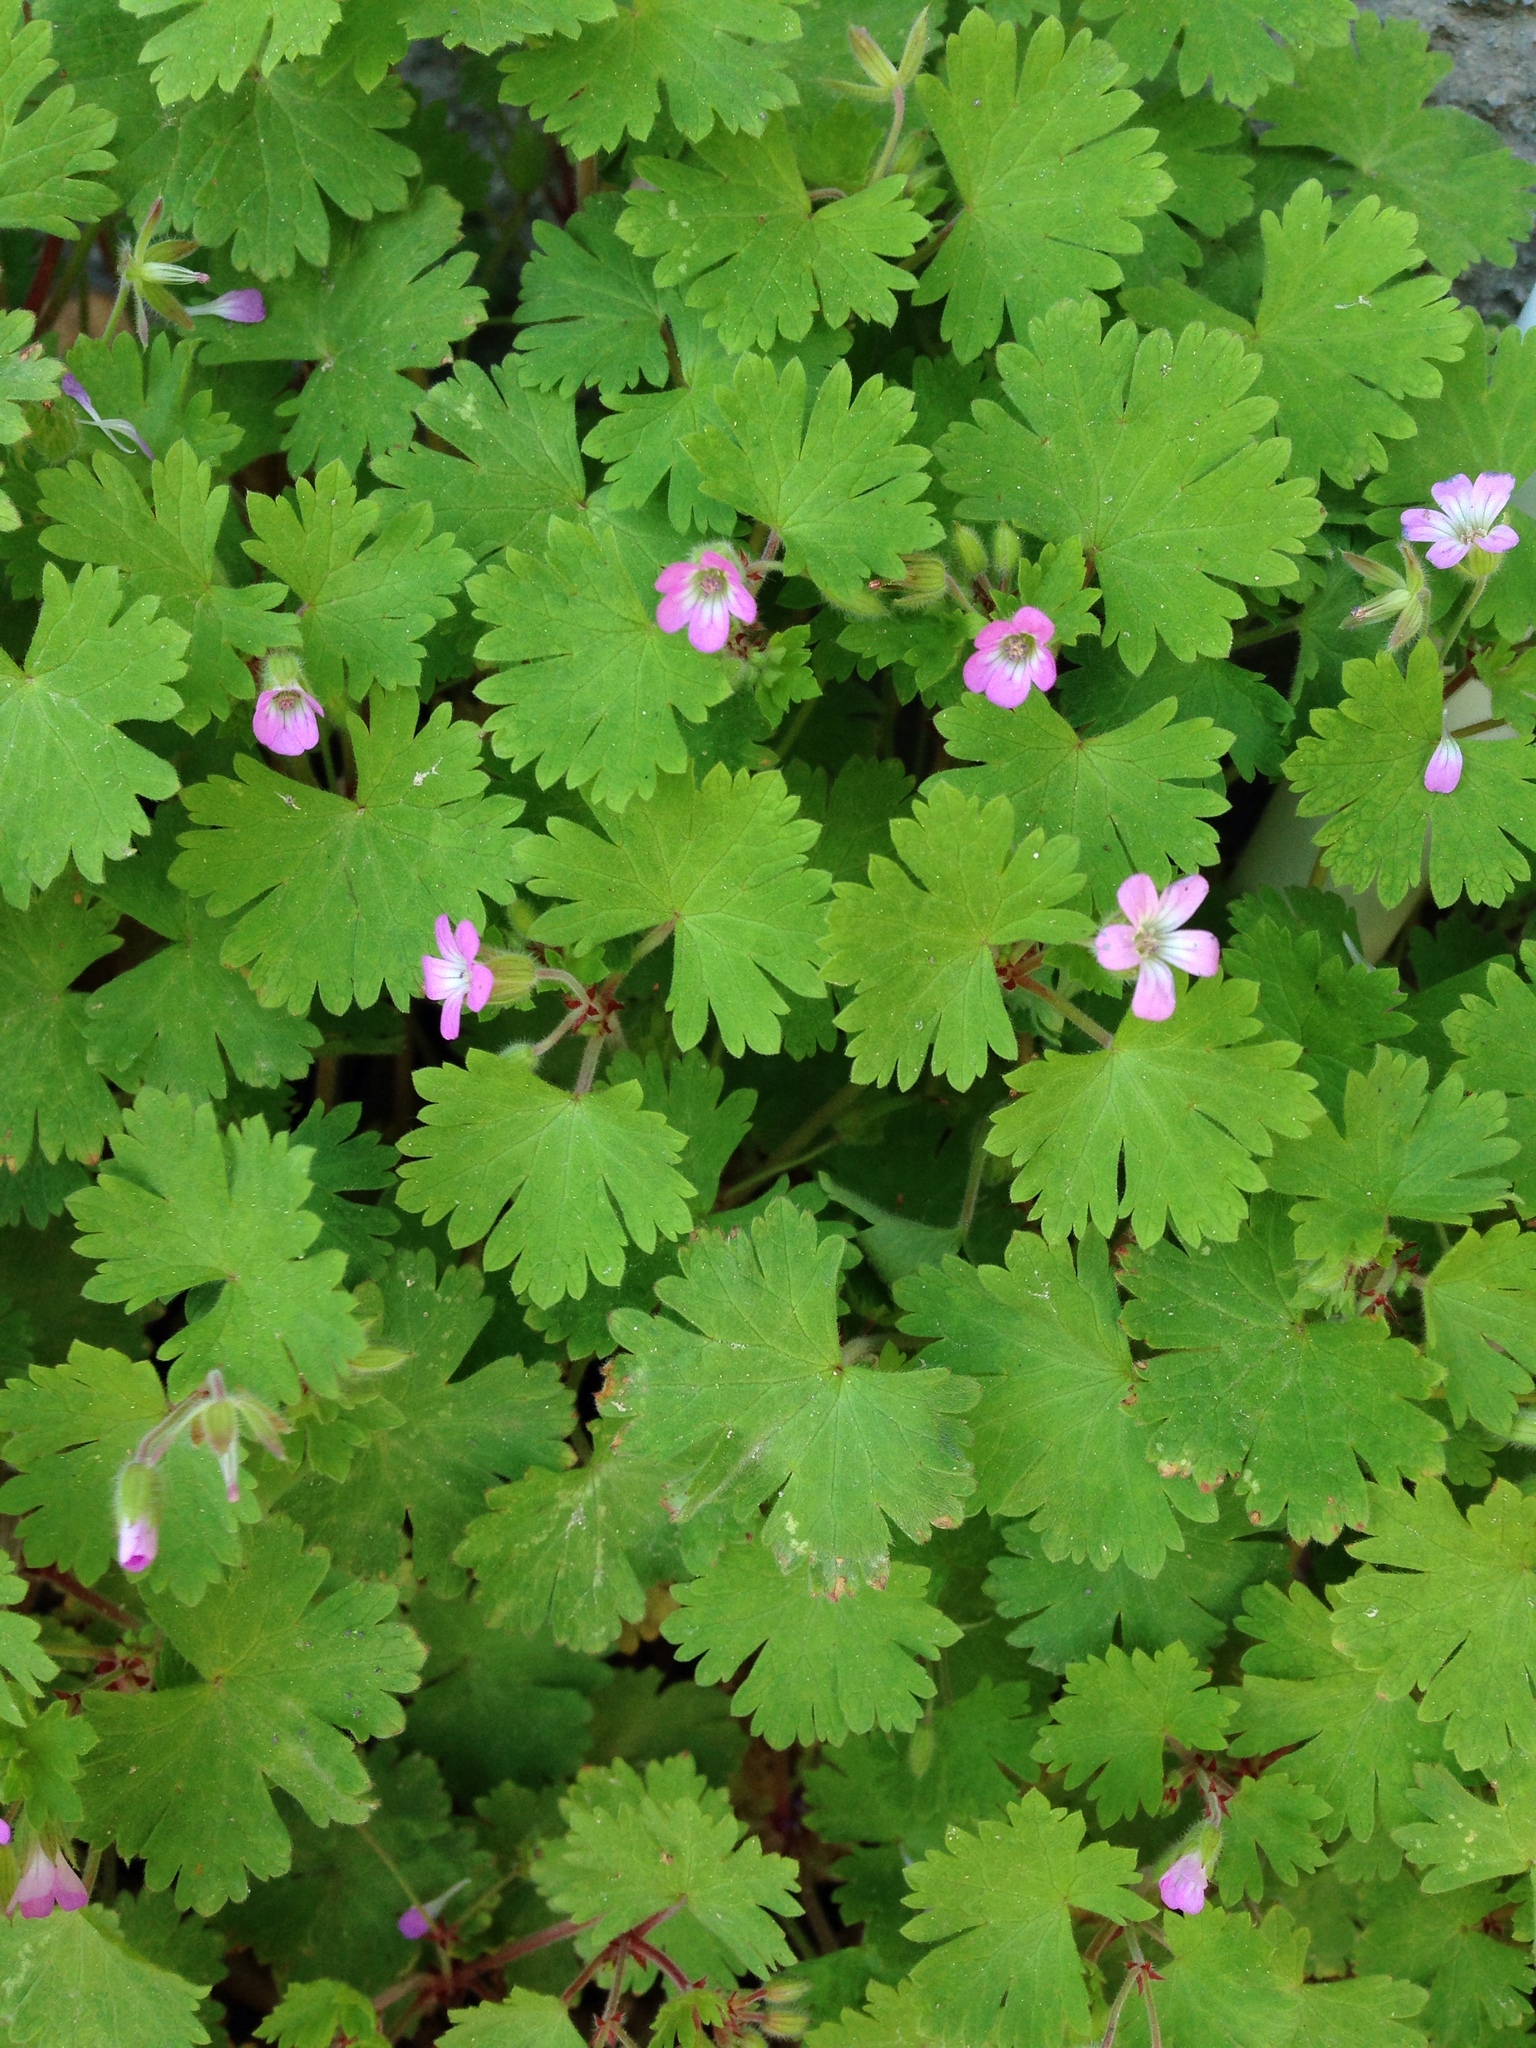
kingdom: Plantae
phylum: Tracheophyta
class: Magnoliopsida
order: Geraniales
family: Geraniaceae
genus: Geranium
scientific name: Geranium molle
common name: Dove's-foot crane's-bill
